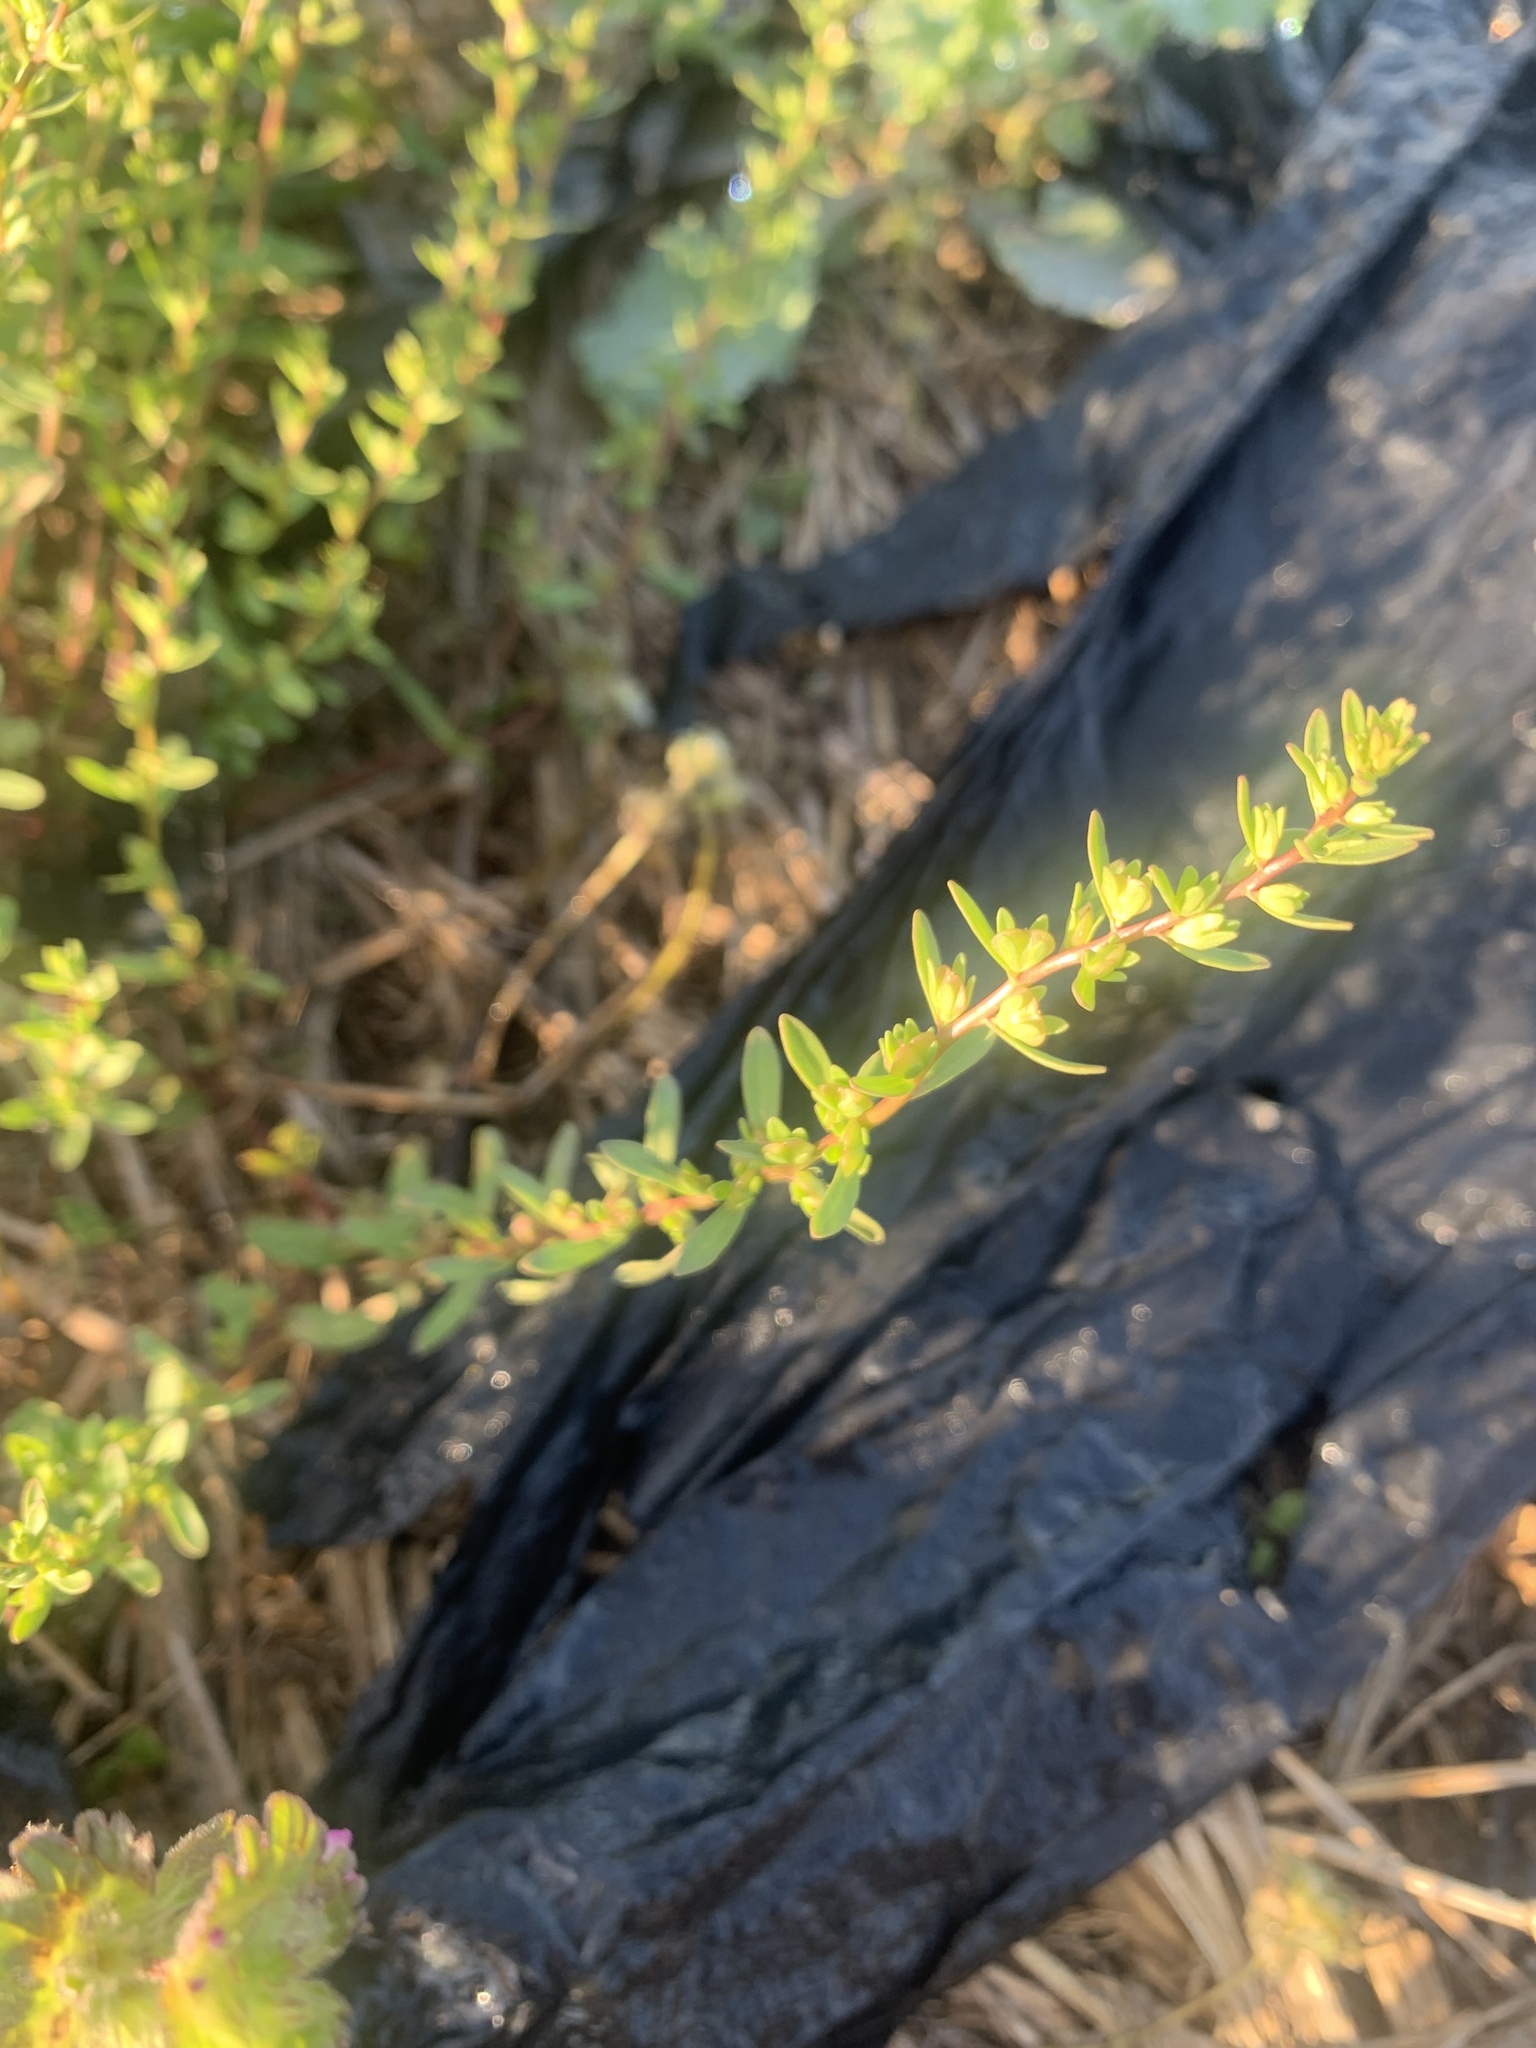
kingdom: Plantae
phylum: Tracheophyta
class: Magnoliopsida
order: Lamiales
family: Plantaginaceae
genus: Veronica
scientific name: Veronica peregrina
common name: Neckweed
